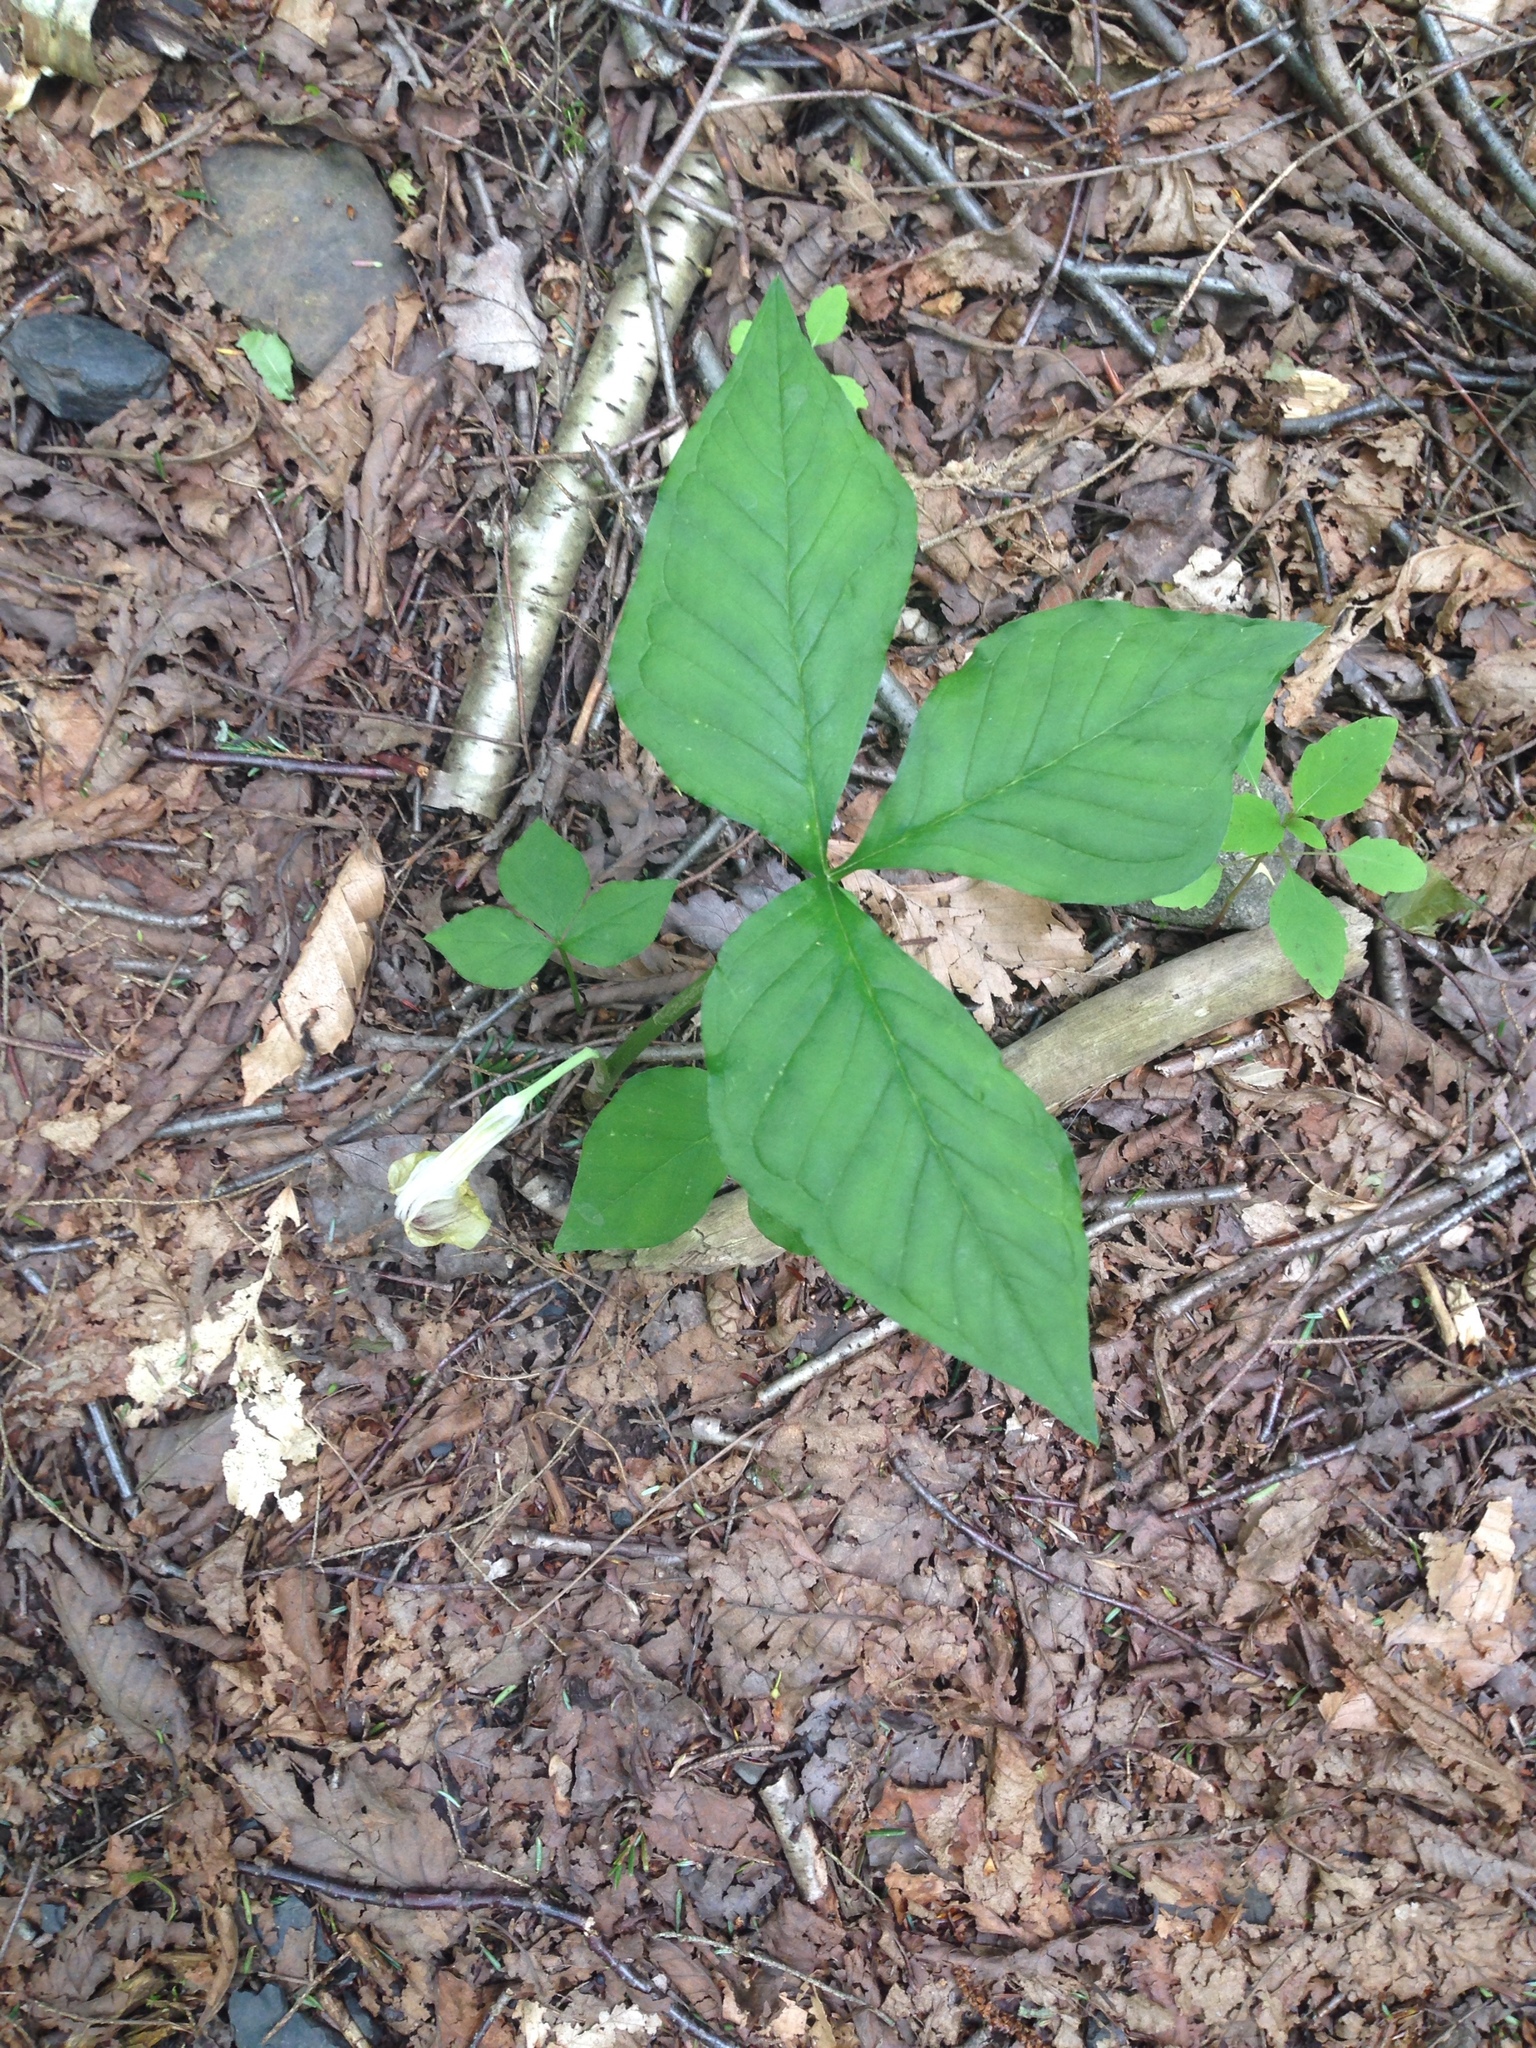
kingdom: Plantae
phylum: Tracheophyta
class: Liliopsida
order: Alismatales
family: Araceae
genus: Arisaema
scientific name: Arisaema triphyllum
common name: Jack-in-the-pulpit
